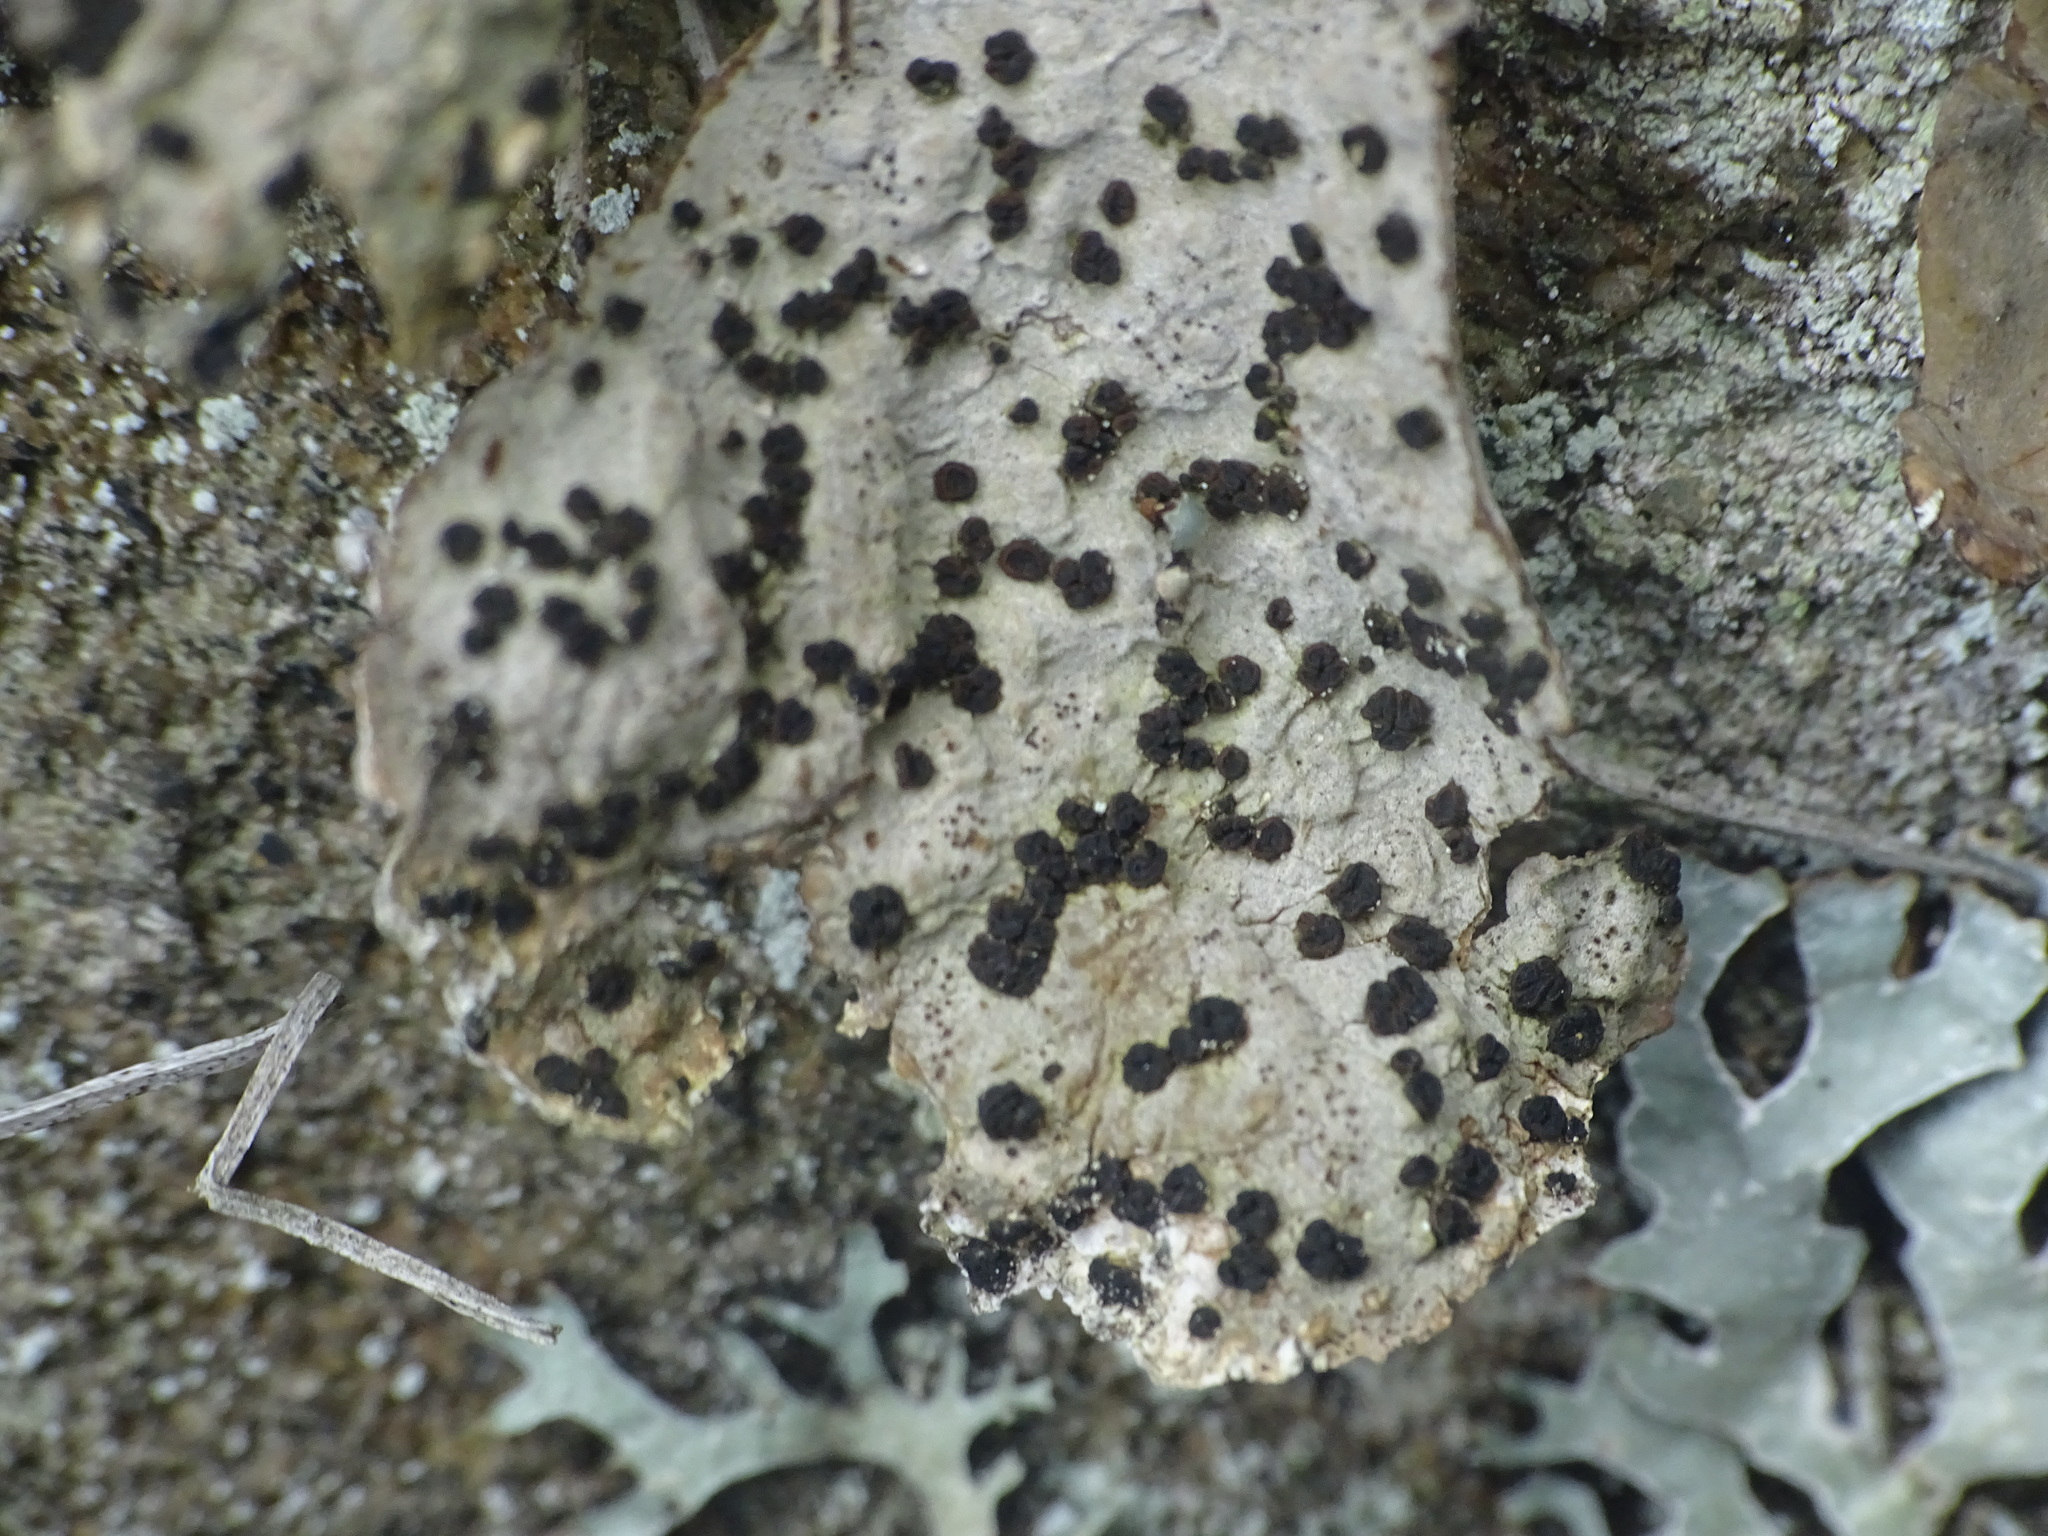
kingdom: Fungi
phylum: Ascomycota
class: Lecanoromycetes
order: Umbilicariales
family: Umbilicariaceae
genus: Lasallia
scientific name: Lasallia papulosa
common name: Common toadskin lichen
